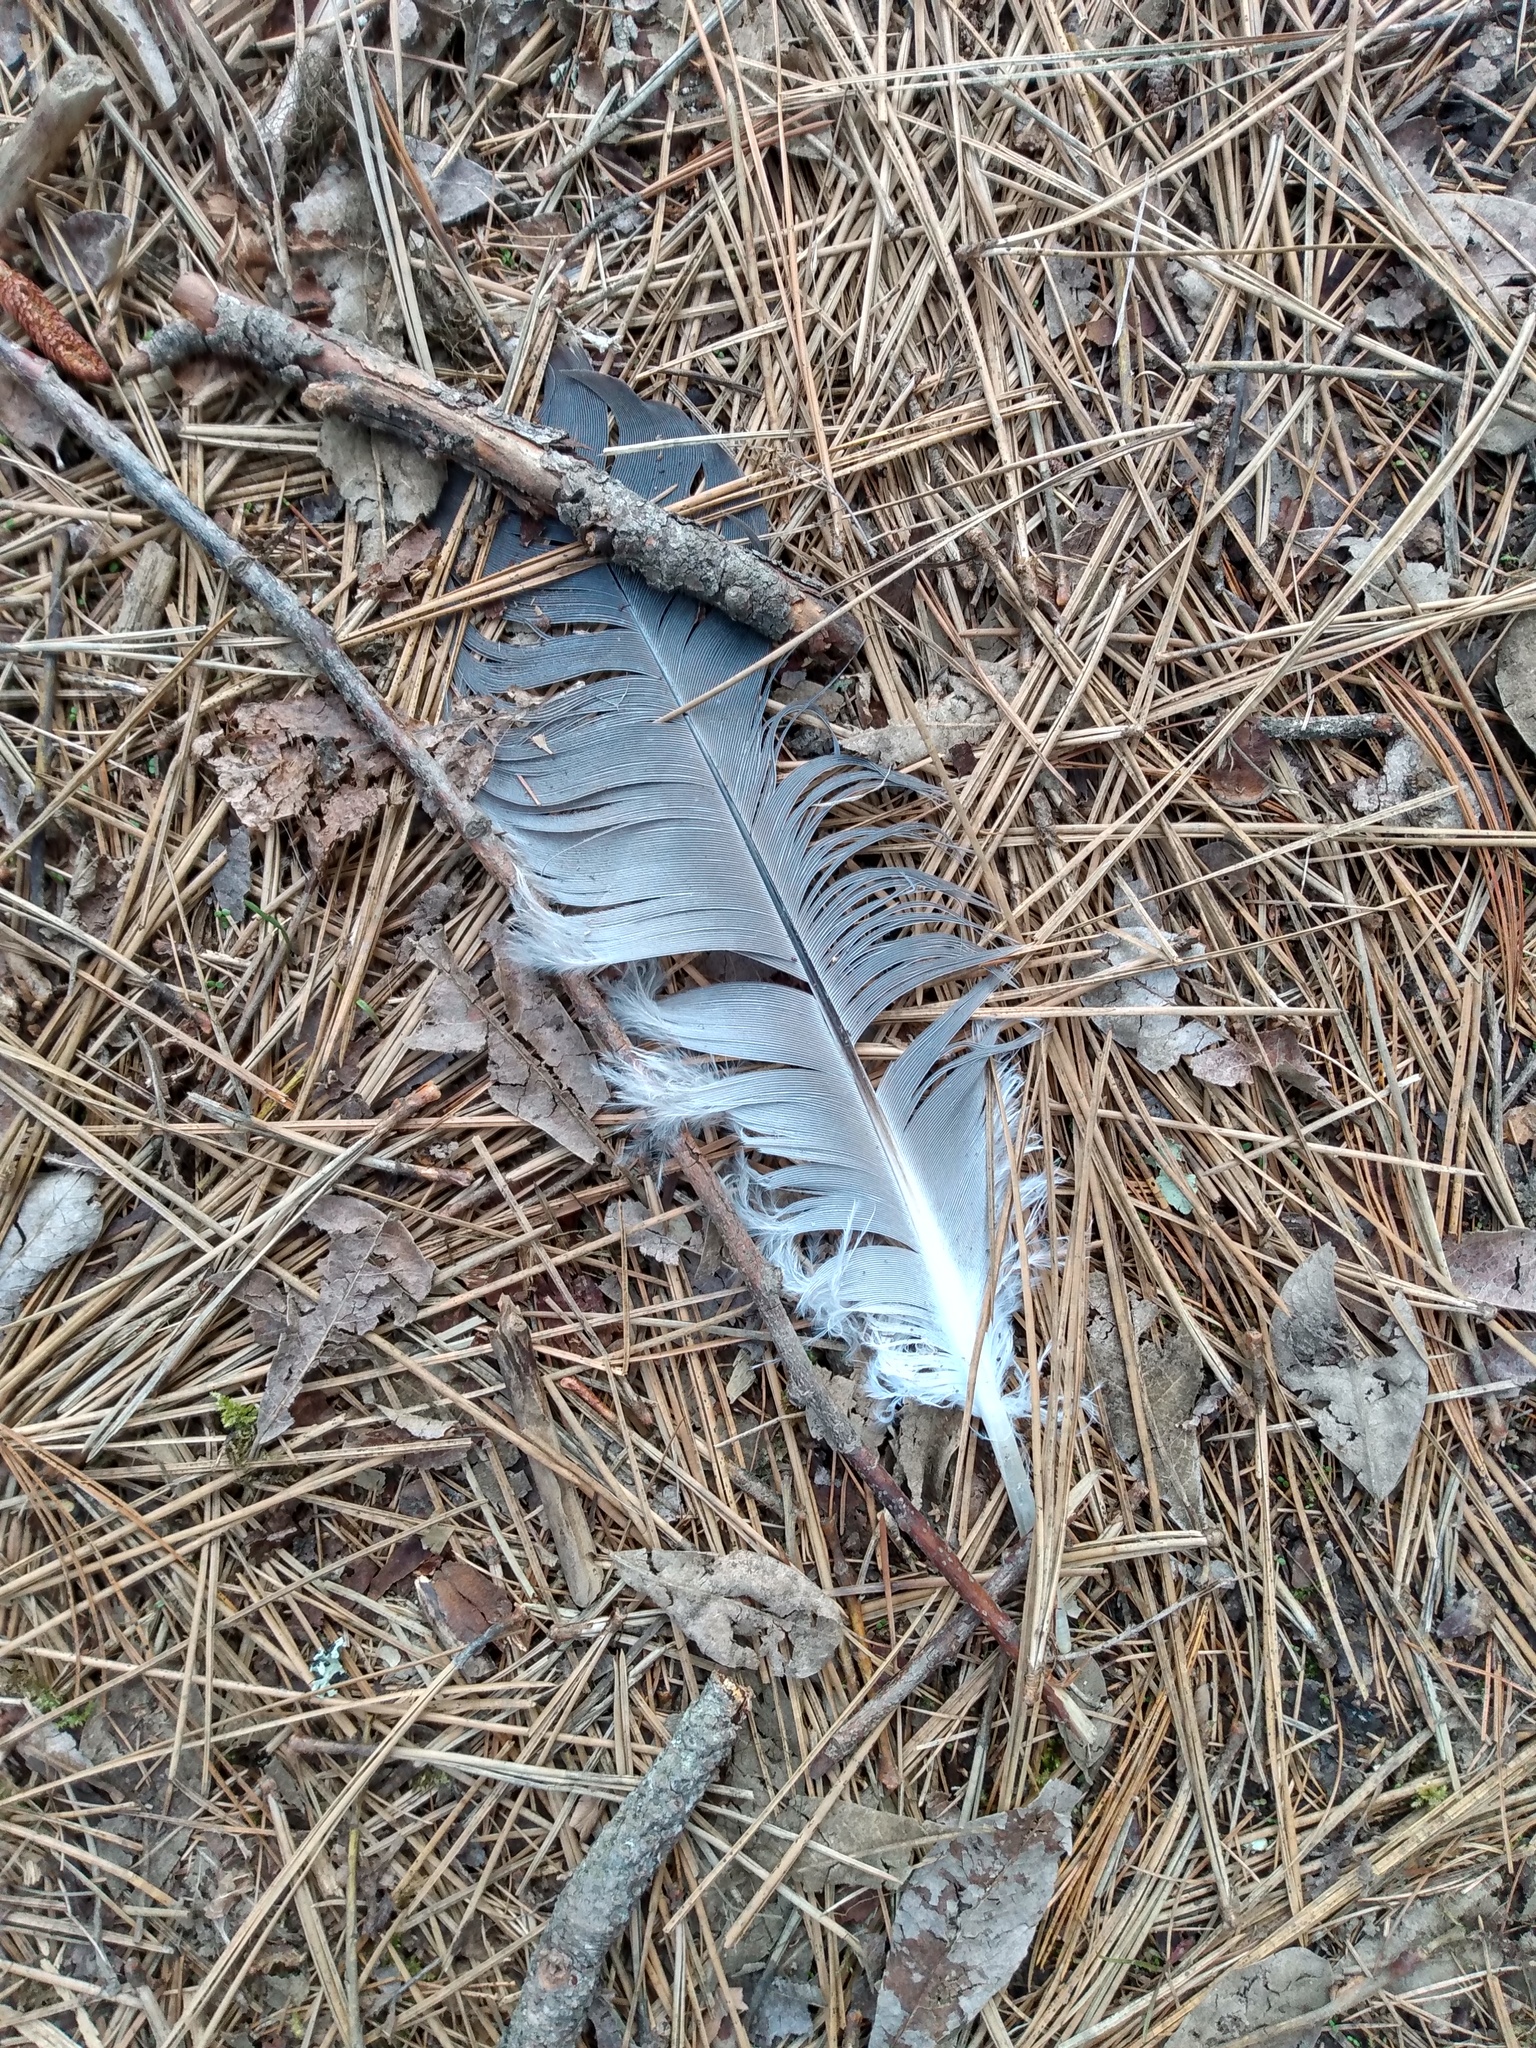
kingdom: Animalia
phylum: Chordata
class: Aves
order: Pelecaniformes
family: Ardeidae
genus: Ardea
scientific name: Ardea herodias
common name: Great blue heron
